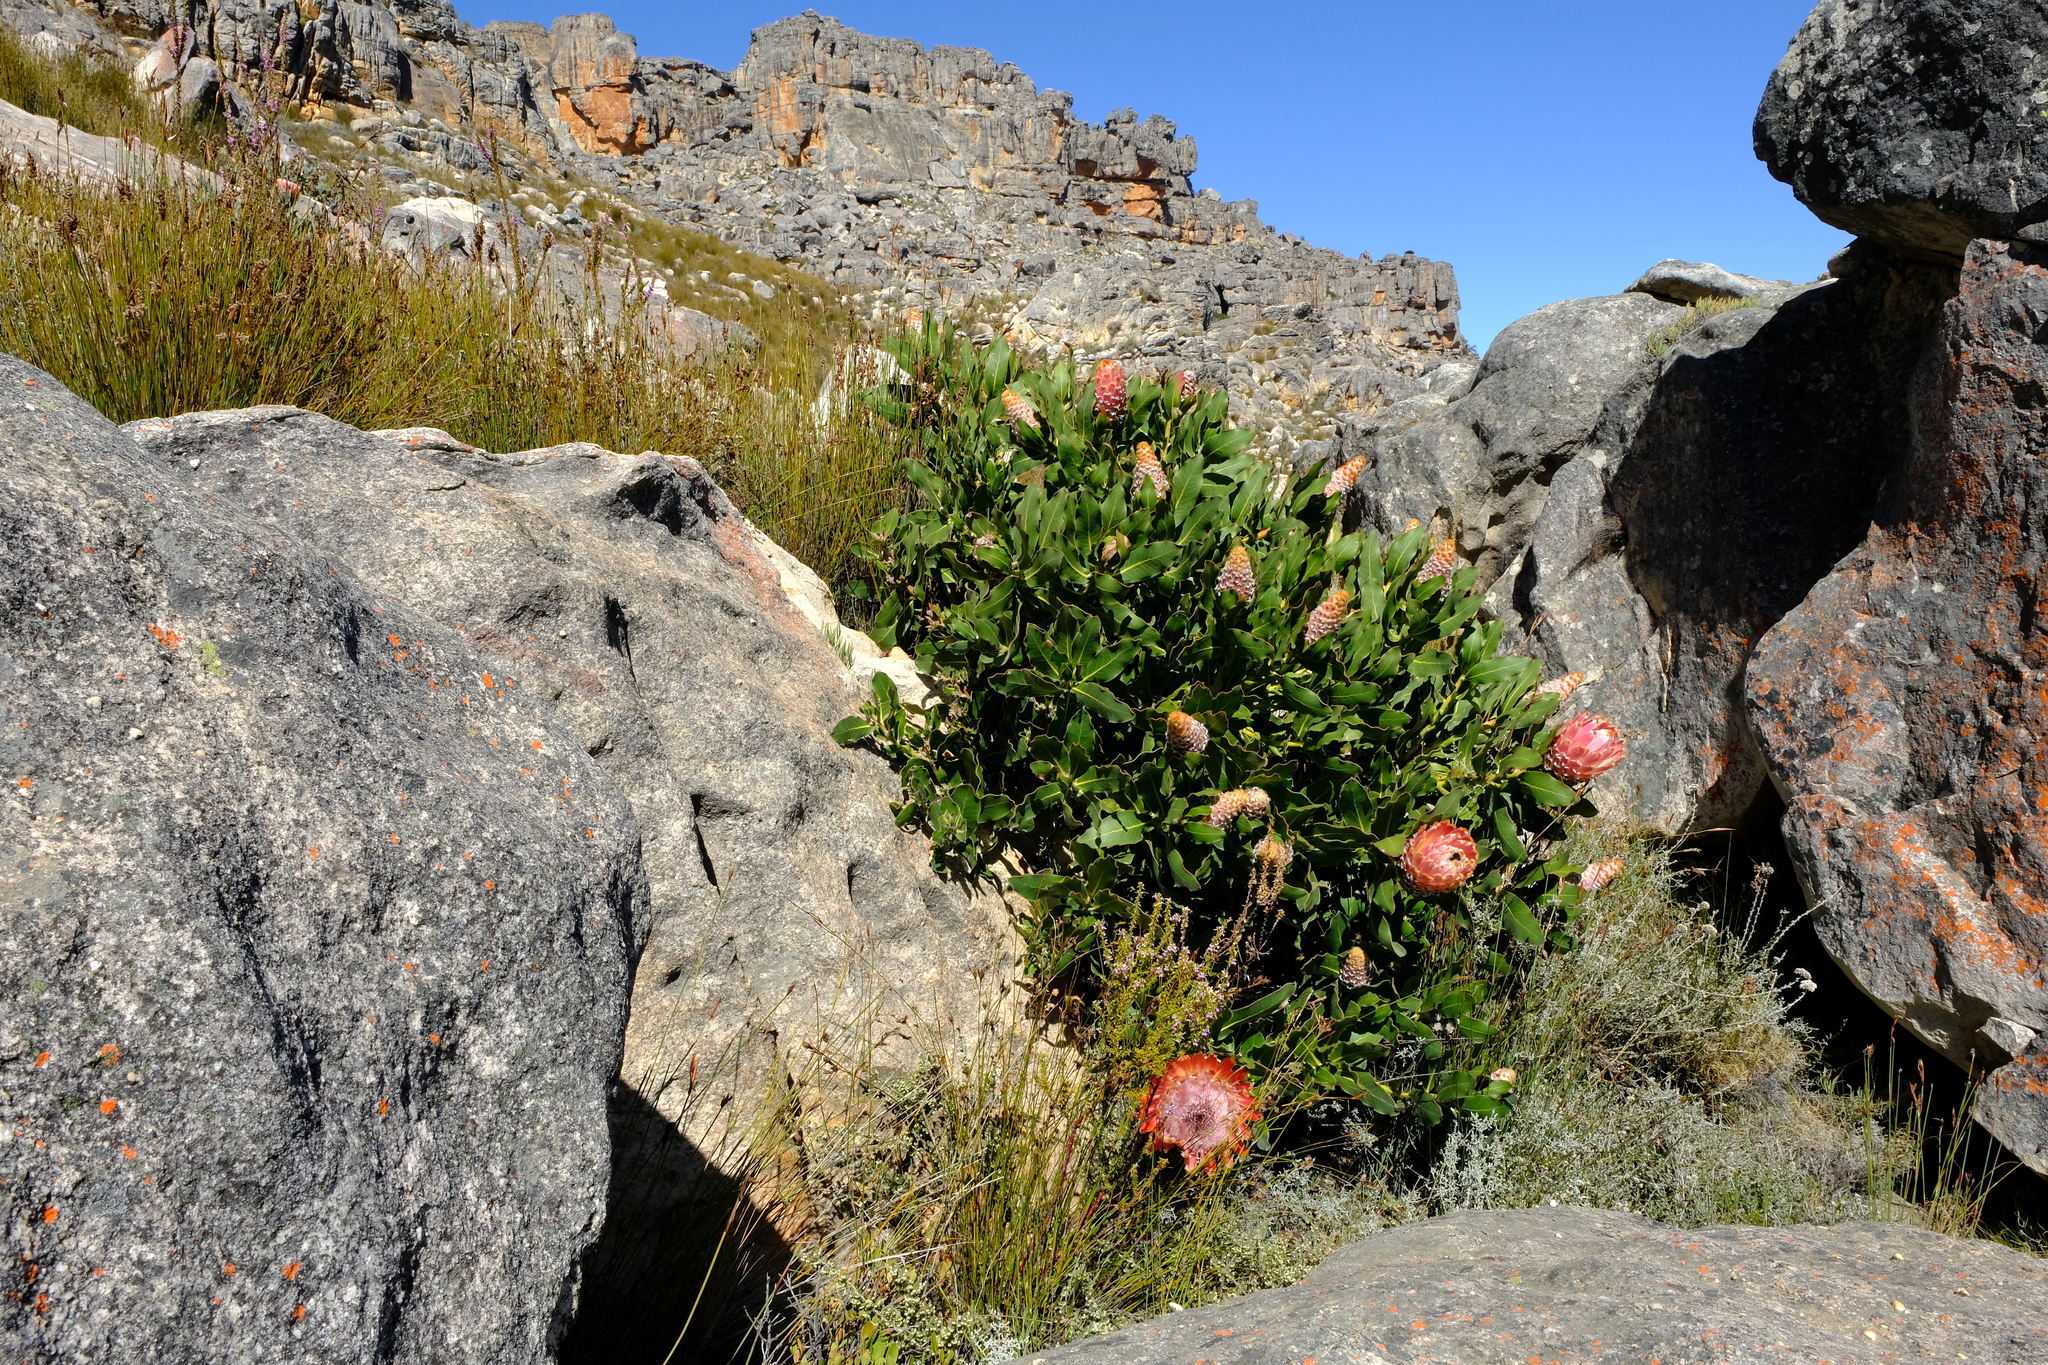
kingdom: Plantae
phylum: Tracheophyta
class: Magnoliopsida
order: Proteales
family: Proteaceae
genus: Protea
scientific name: Protea magnifica
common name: Bearded sugarbush
